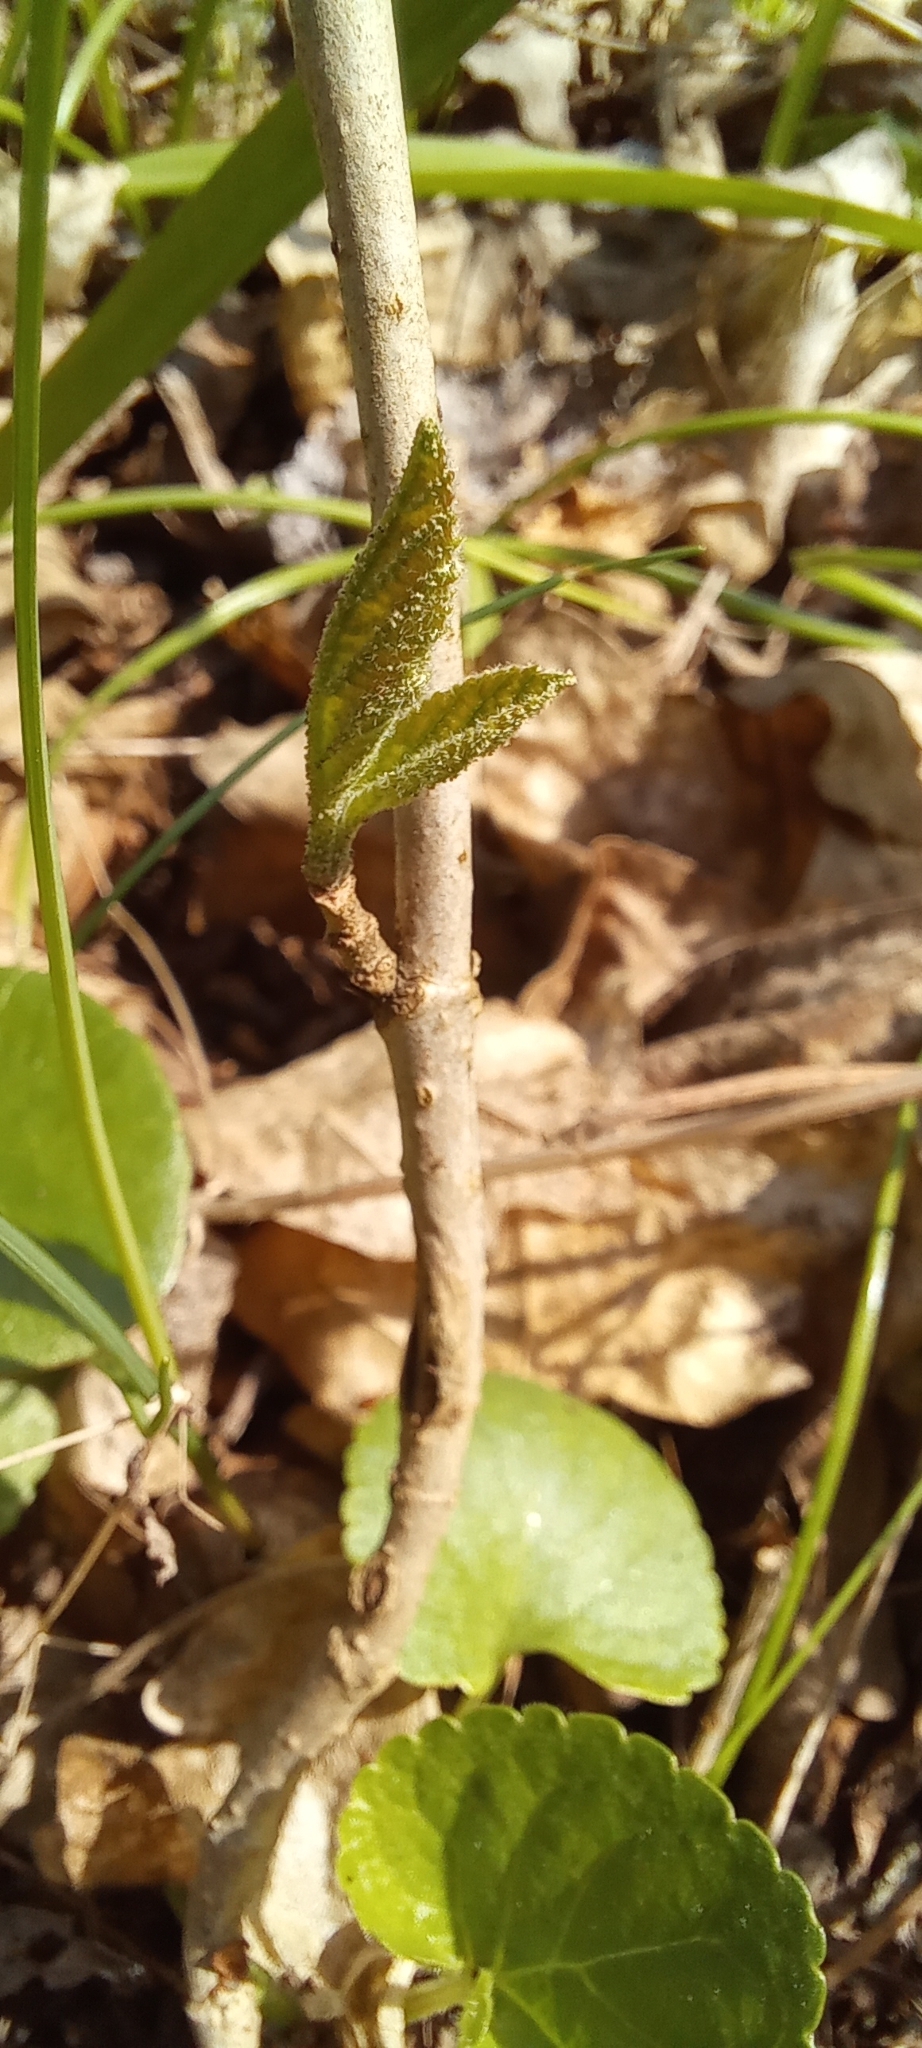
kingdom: Plantae
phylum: Tracheophyta
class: Magnoliopsida
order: Dipsacales
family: Viburnaceae
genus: Viburnum
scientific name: Viburnum lantana
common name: Wayfaring tree
